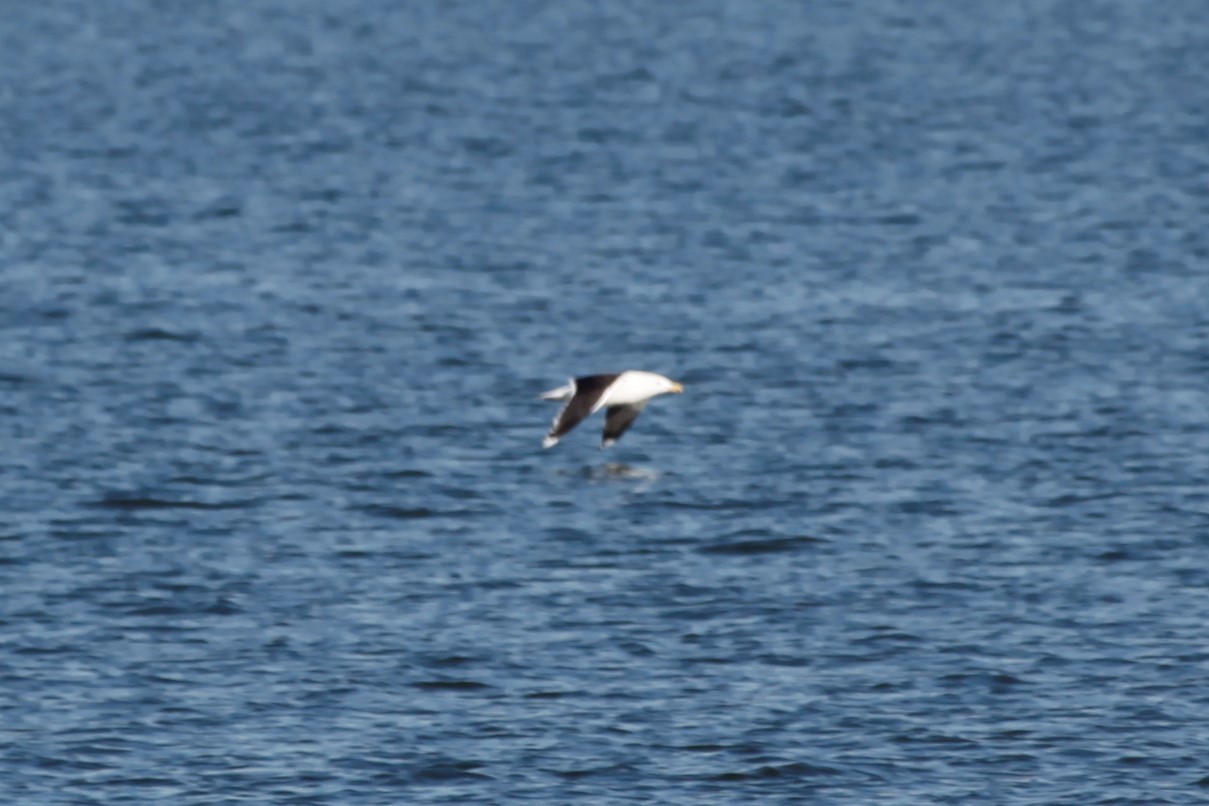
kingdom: Animalia
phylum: Chordata
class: Aves
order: Charadriiformes
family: Laridae
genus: Larus
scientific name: Larus marinus
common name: Great black-backed gull
